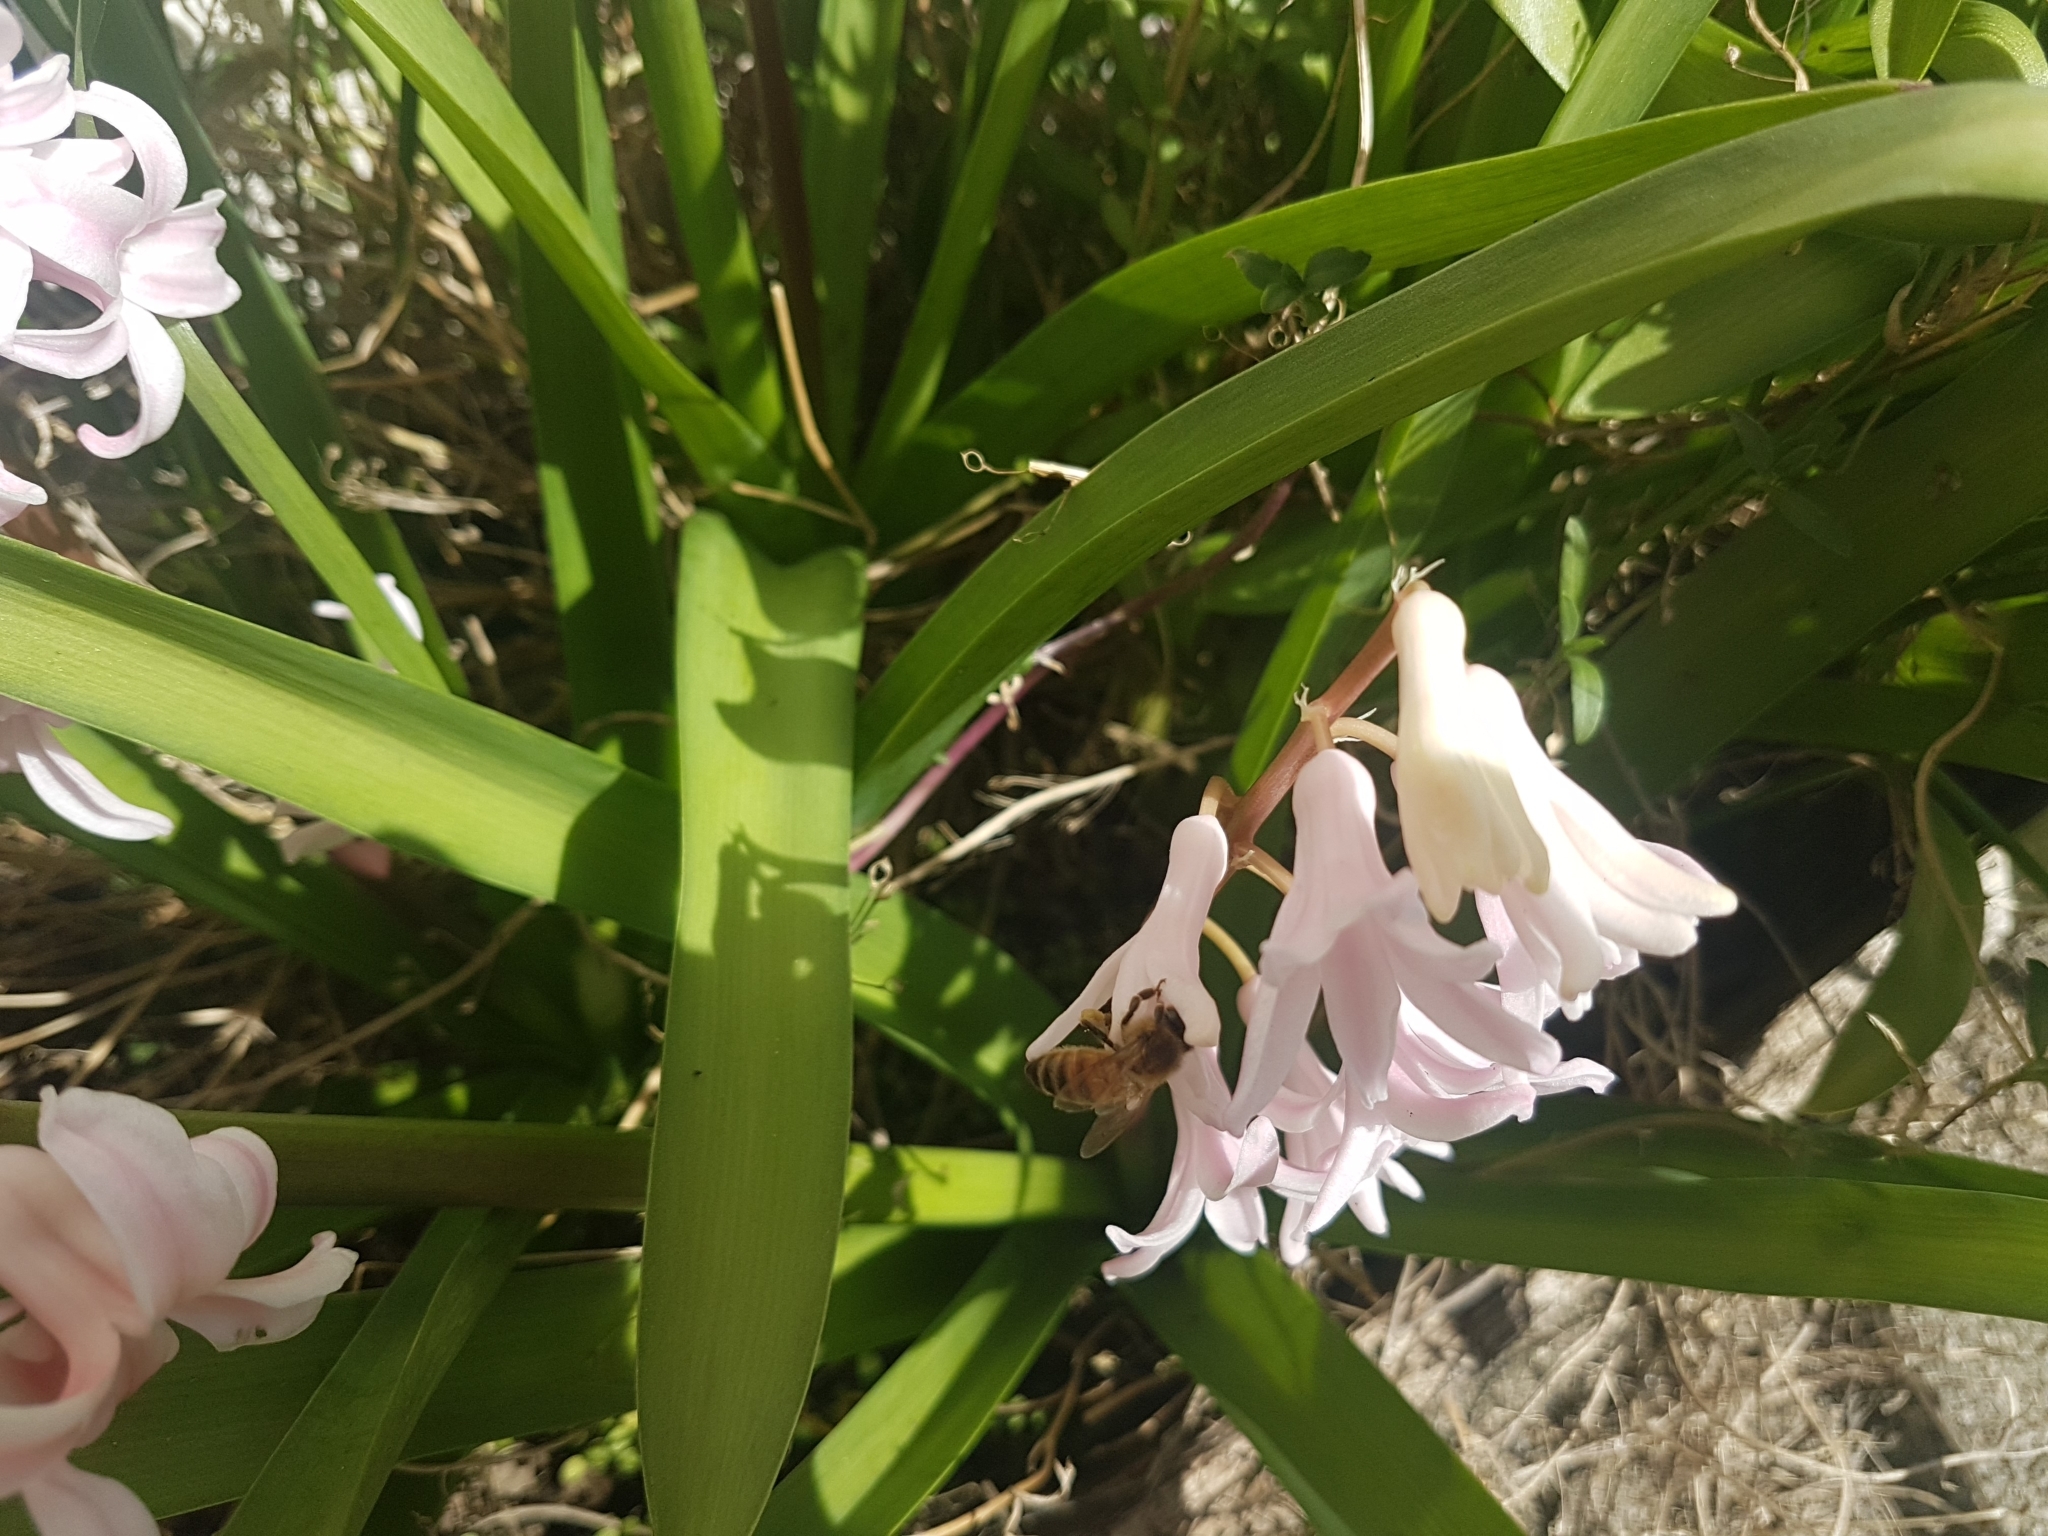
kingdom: Animalia
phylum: Arthropoda
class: Insecta
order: Hymenoptera
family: Apidae
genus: Apis
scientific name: Apis mellifera
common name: Honey bee
